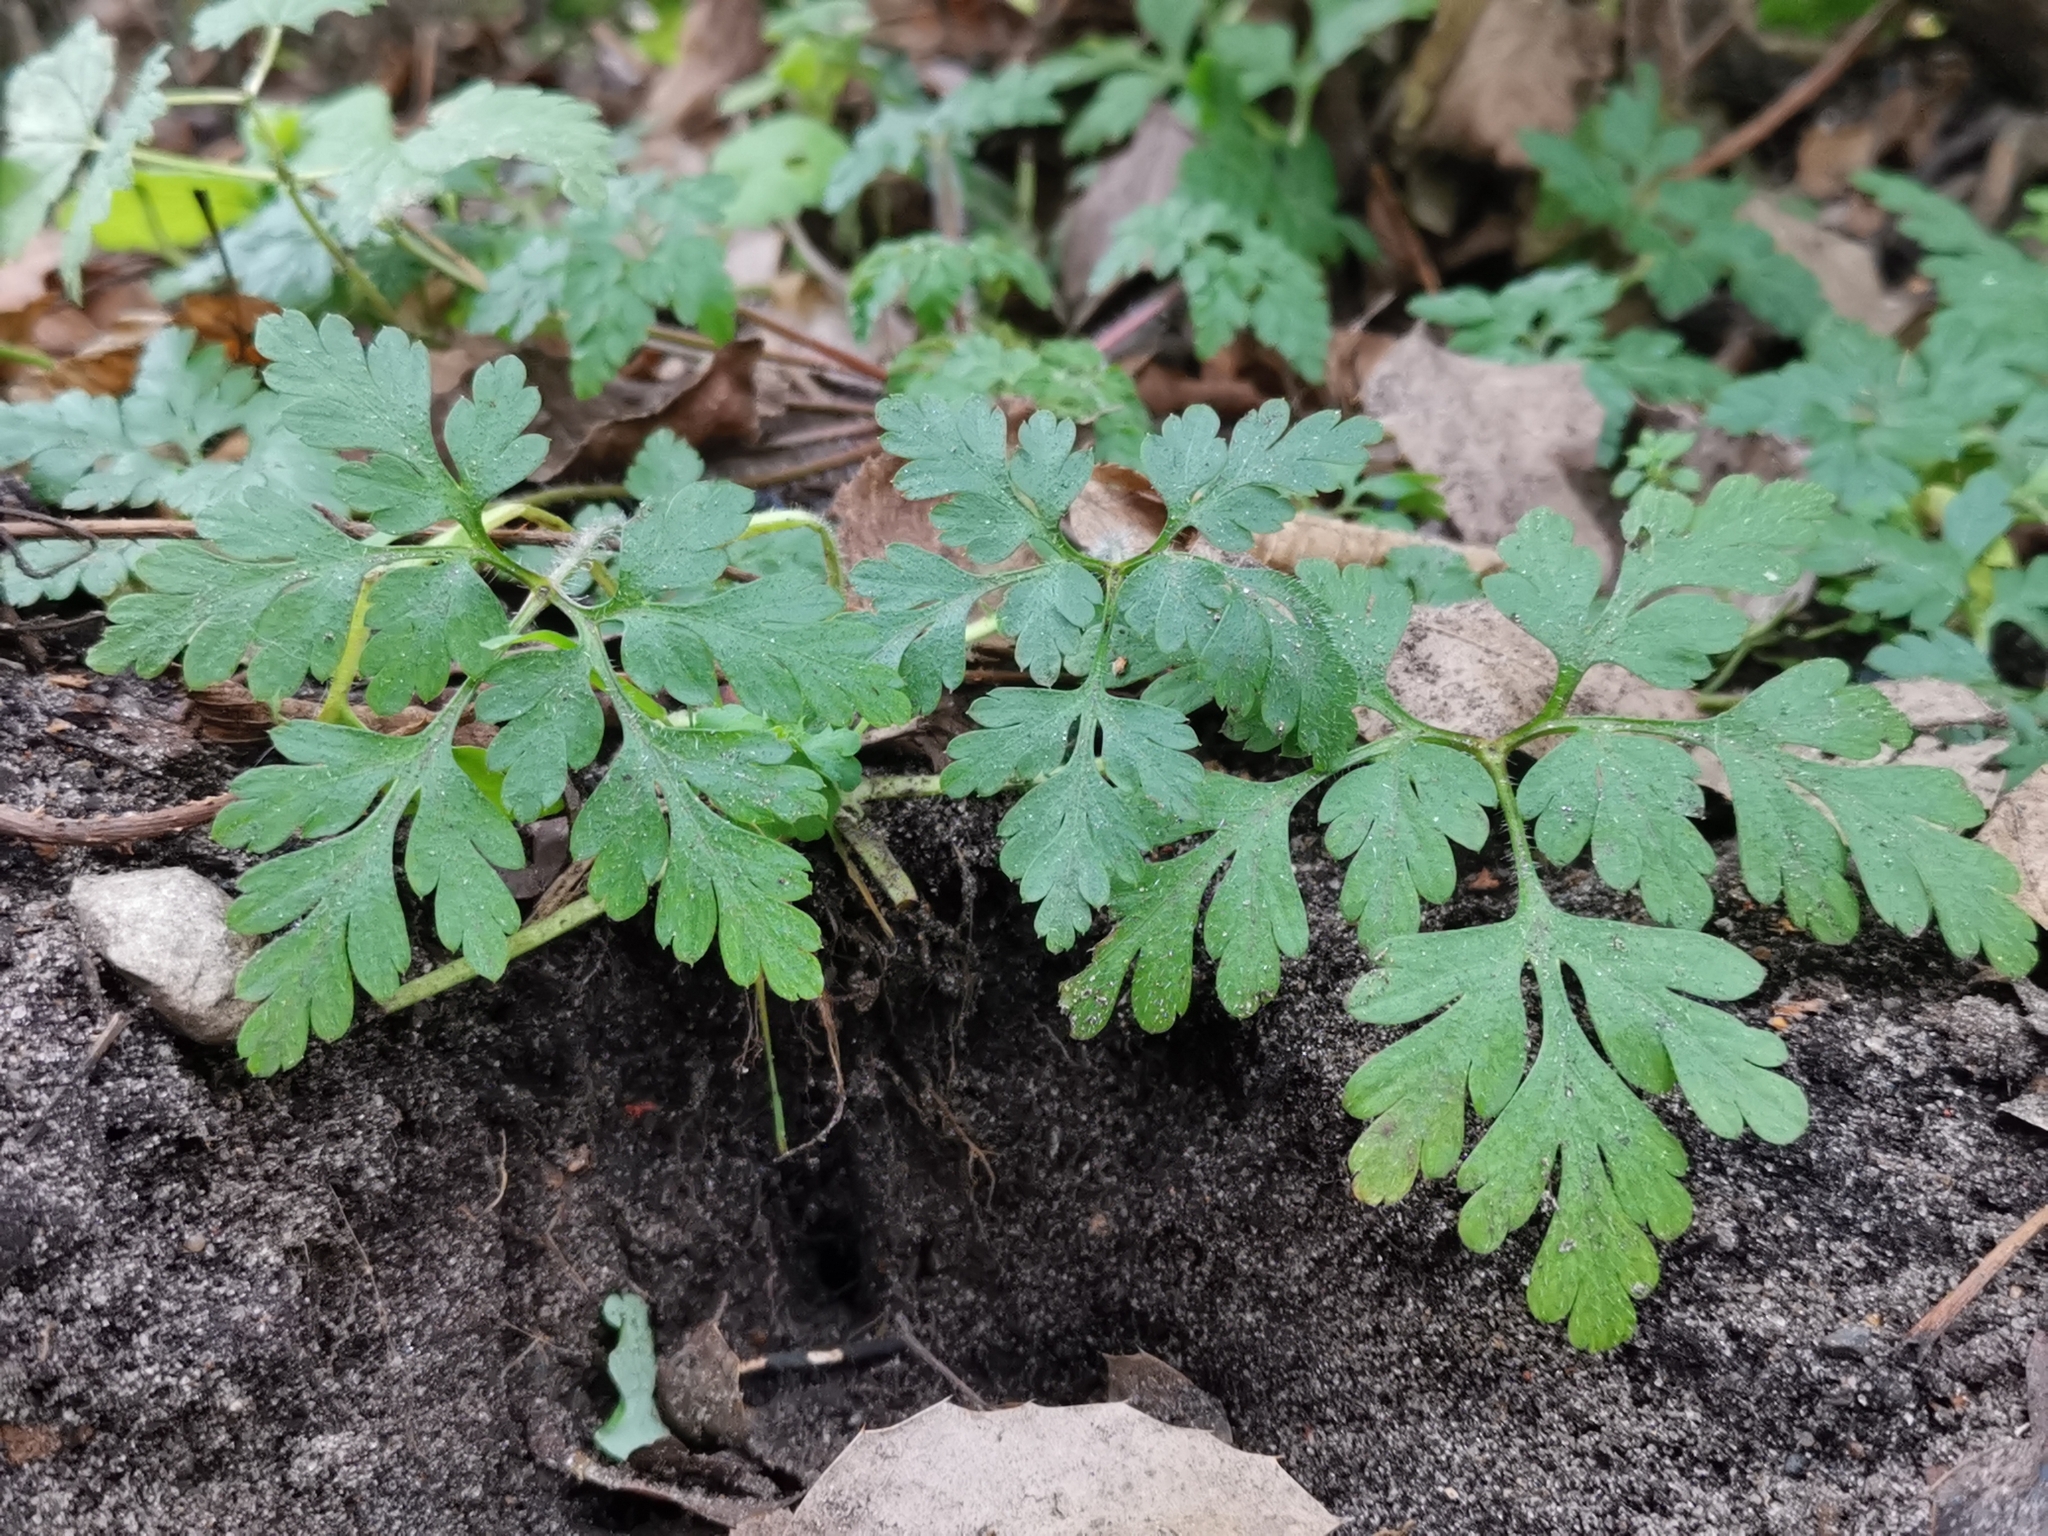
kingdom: Plantae
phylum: Tracheophyta
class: Magnoliopsida
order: Geraniales
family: Geraniaceae
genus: Geranium
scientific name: Geranium robertianum
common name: Herb-robert
